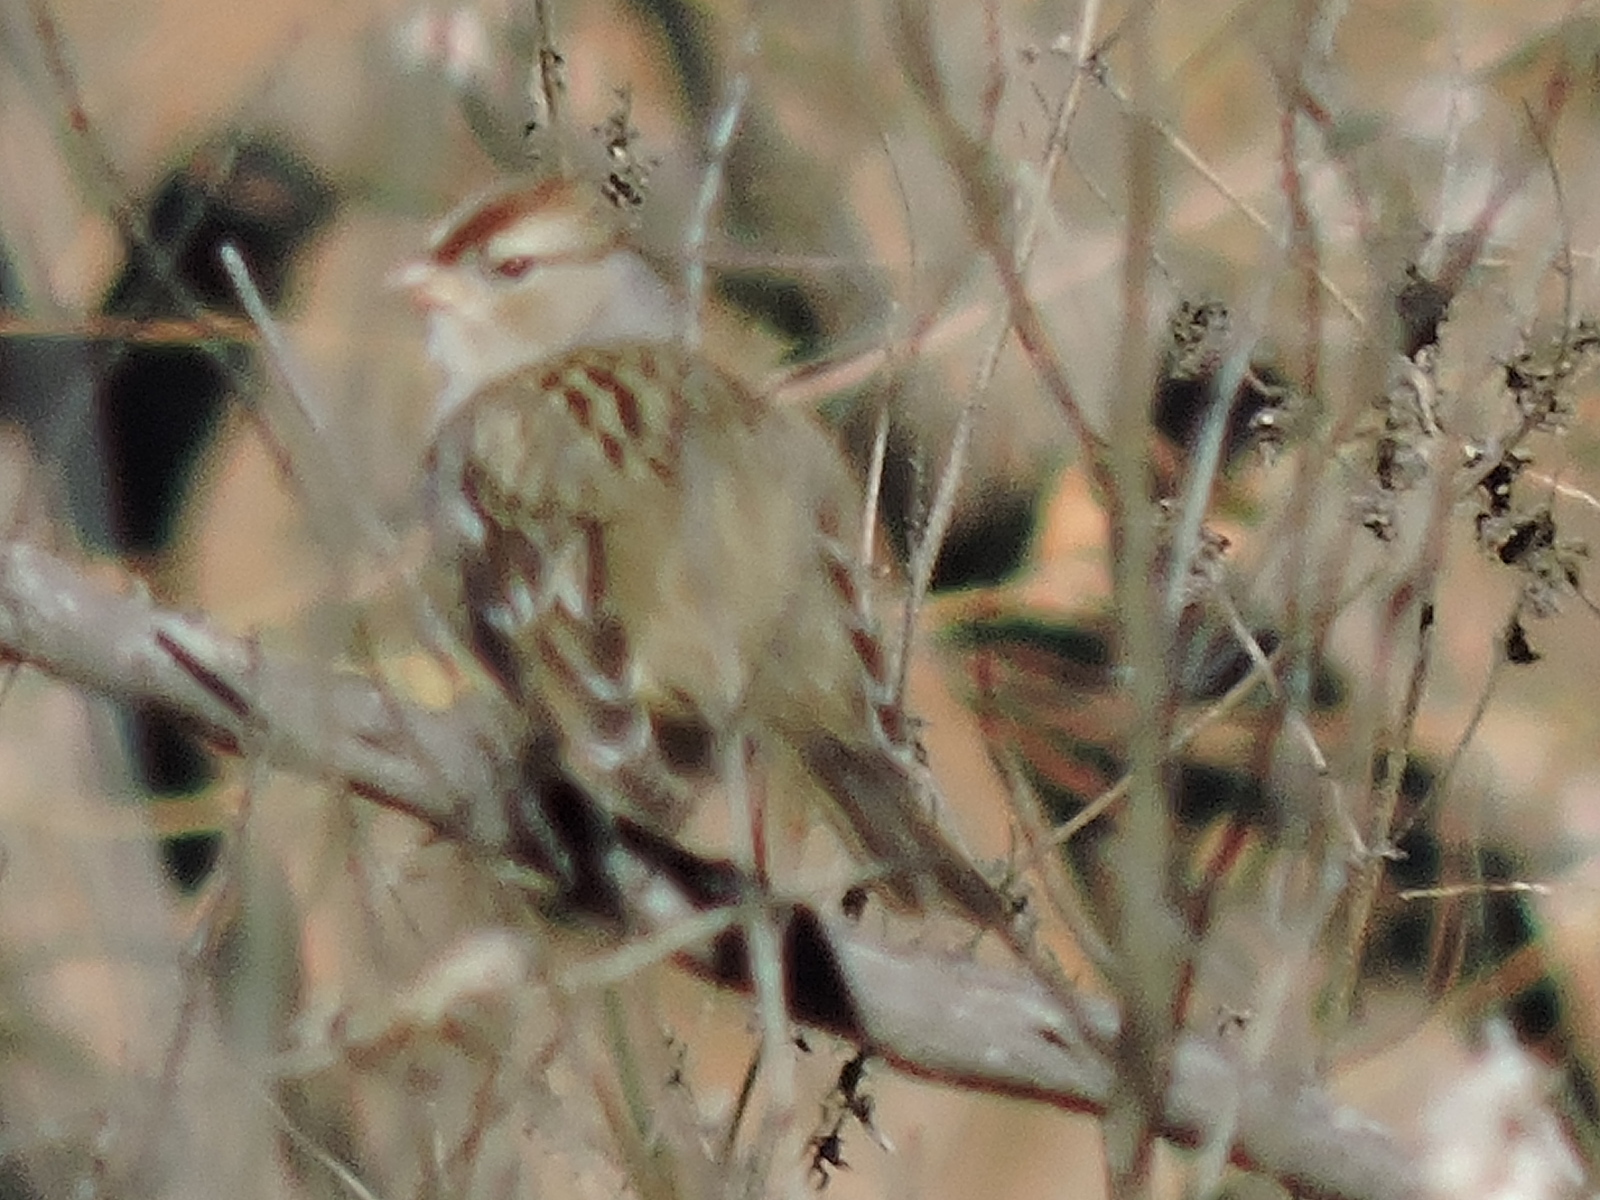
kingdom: Animalia
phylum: Chordata
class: Aves
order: Passeriformes
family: Passerellidae
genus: Zonotrichia
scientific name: Zonotrichia leucophrys
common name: White-crowned sparrow
